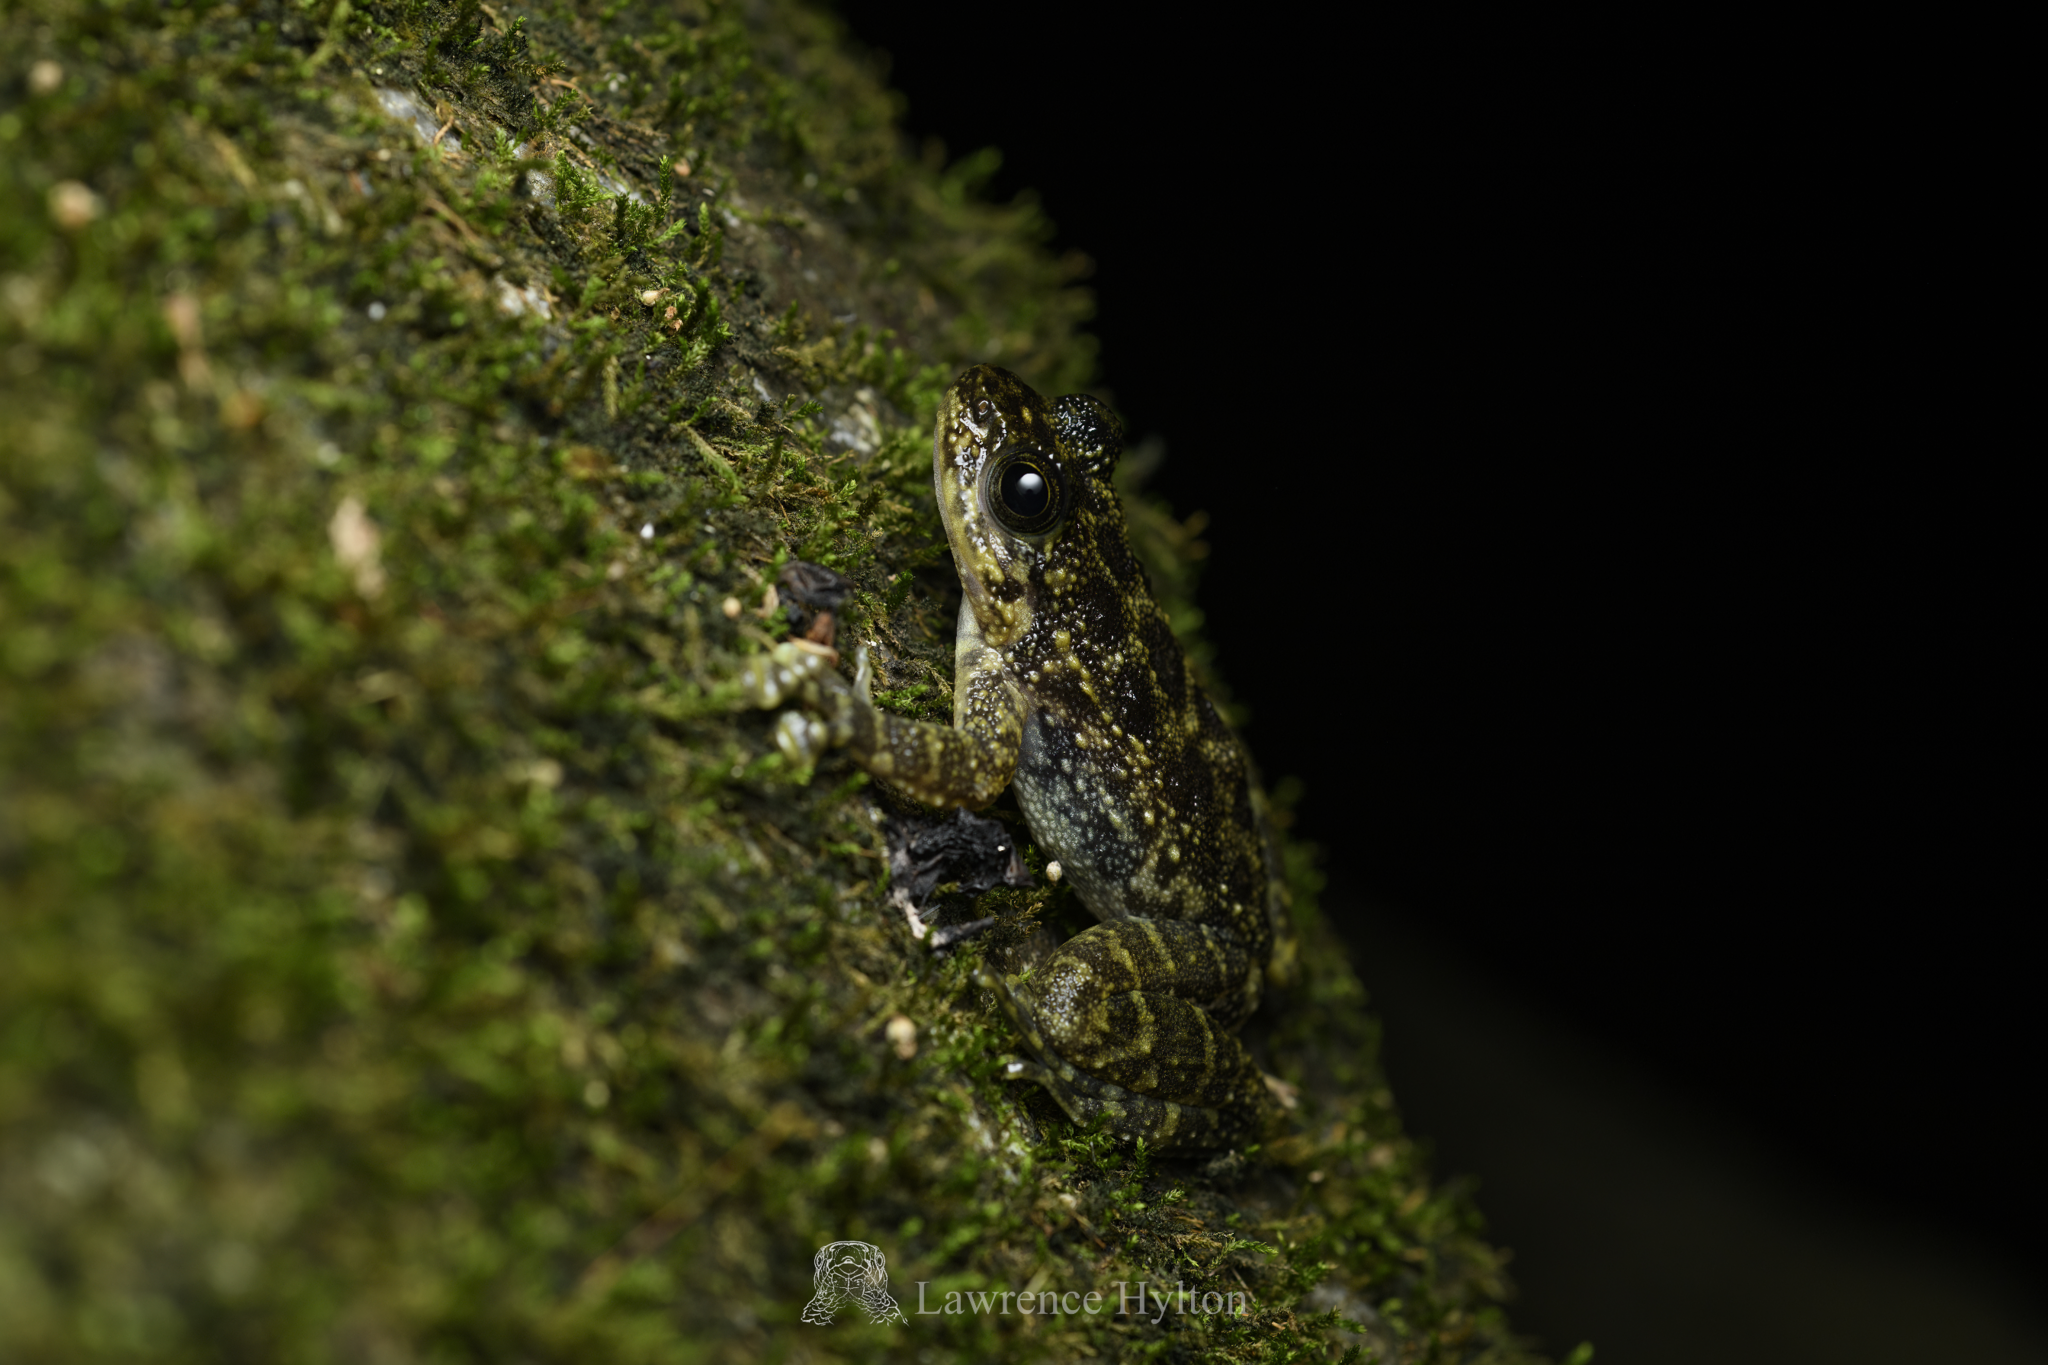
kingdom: Animalia
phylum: Chordata
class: Amphibia
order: Anura
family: Ranidae
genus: Amolops
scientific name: Amolops hongkongensis
